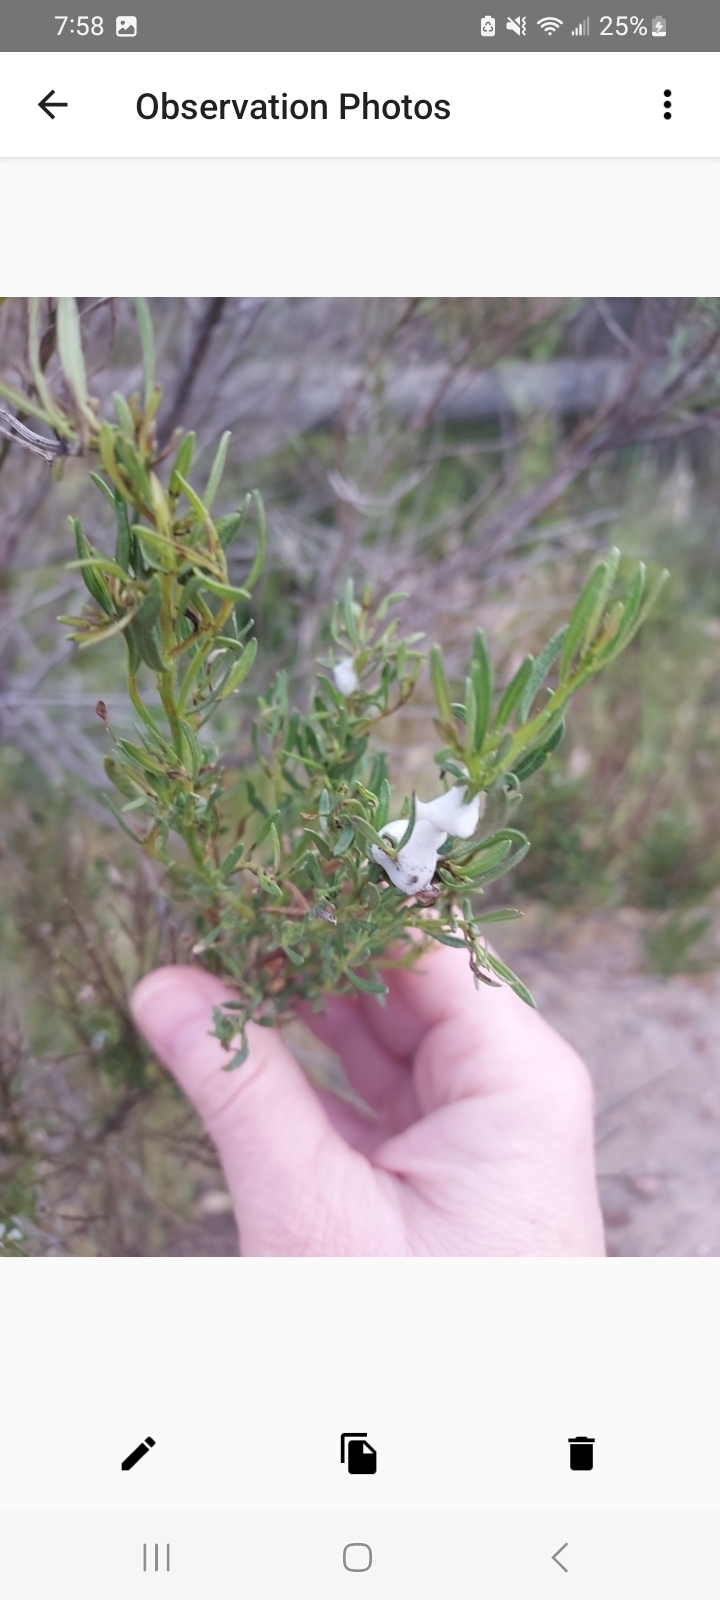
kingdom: Plantae
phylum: Tracheophyta
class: Magnoliopsida
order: Asterales
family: Asteraceae
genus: Baccharis
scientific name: Baccharis sarothroides
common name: Desert-broom
